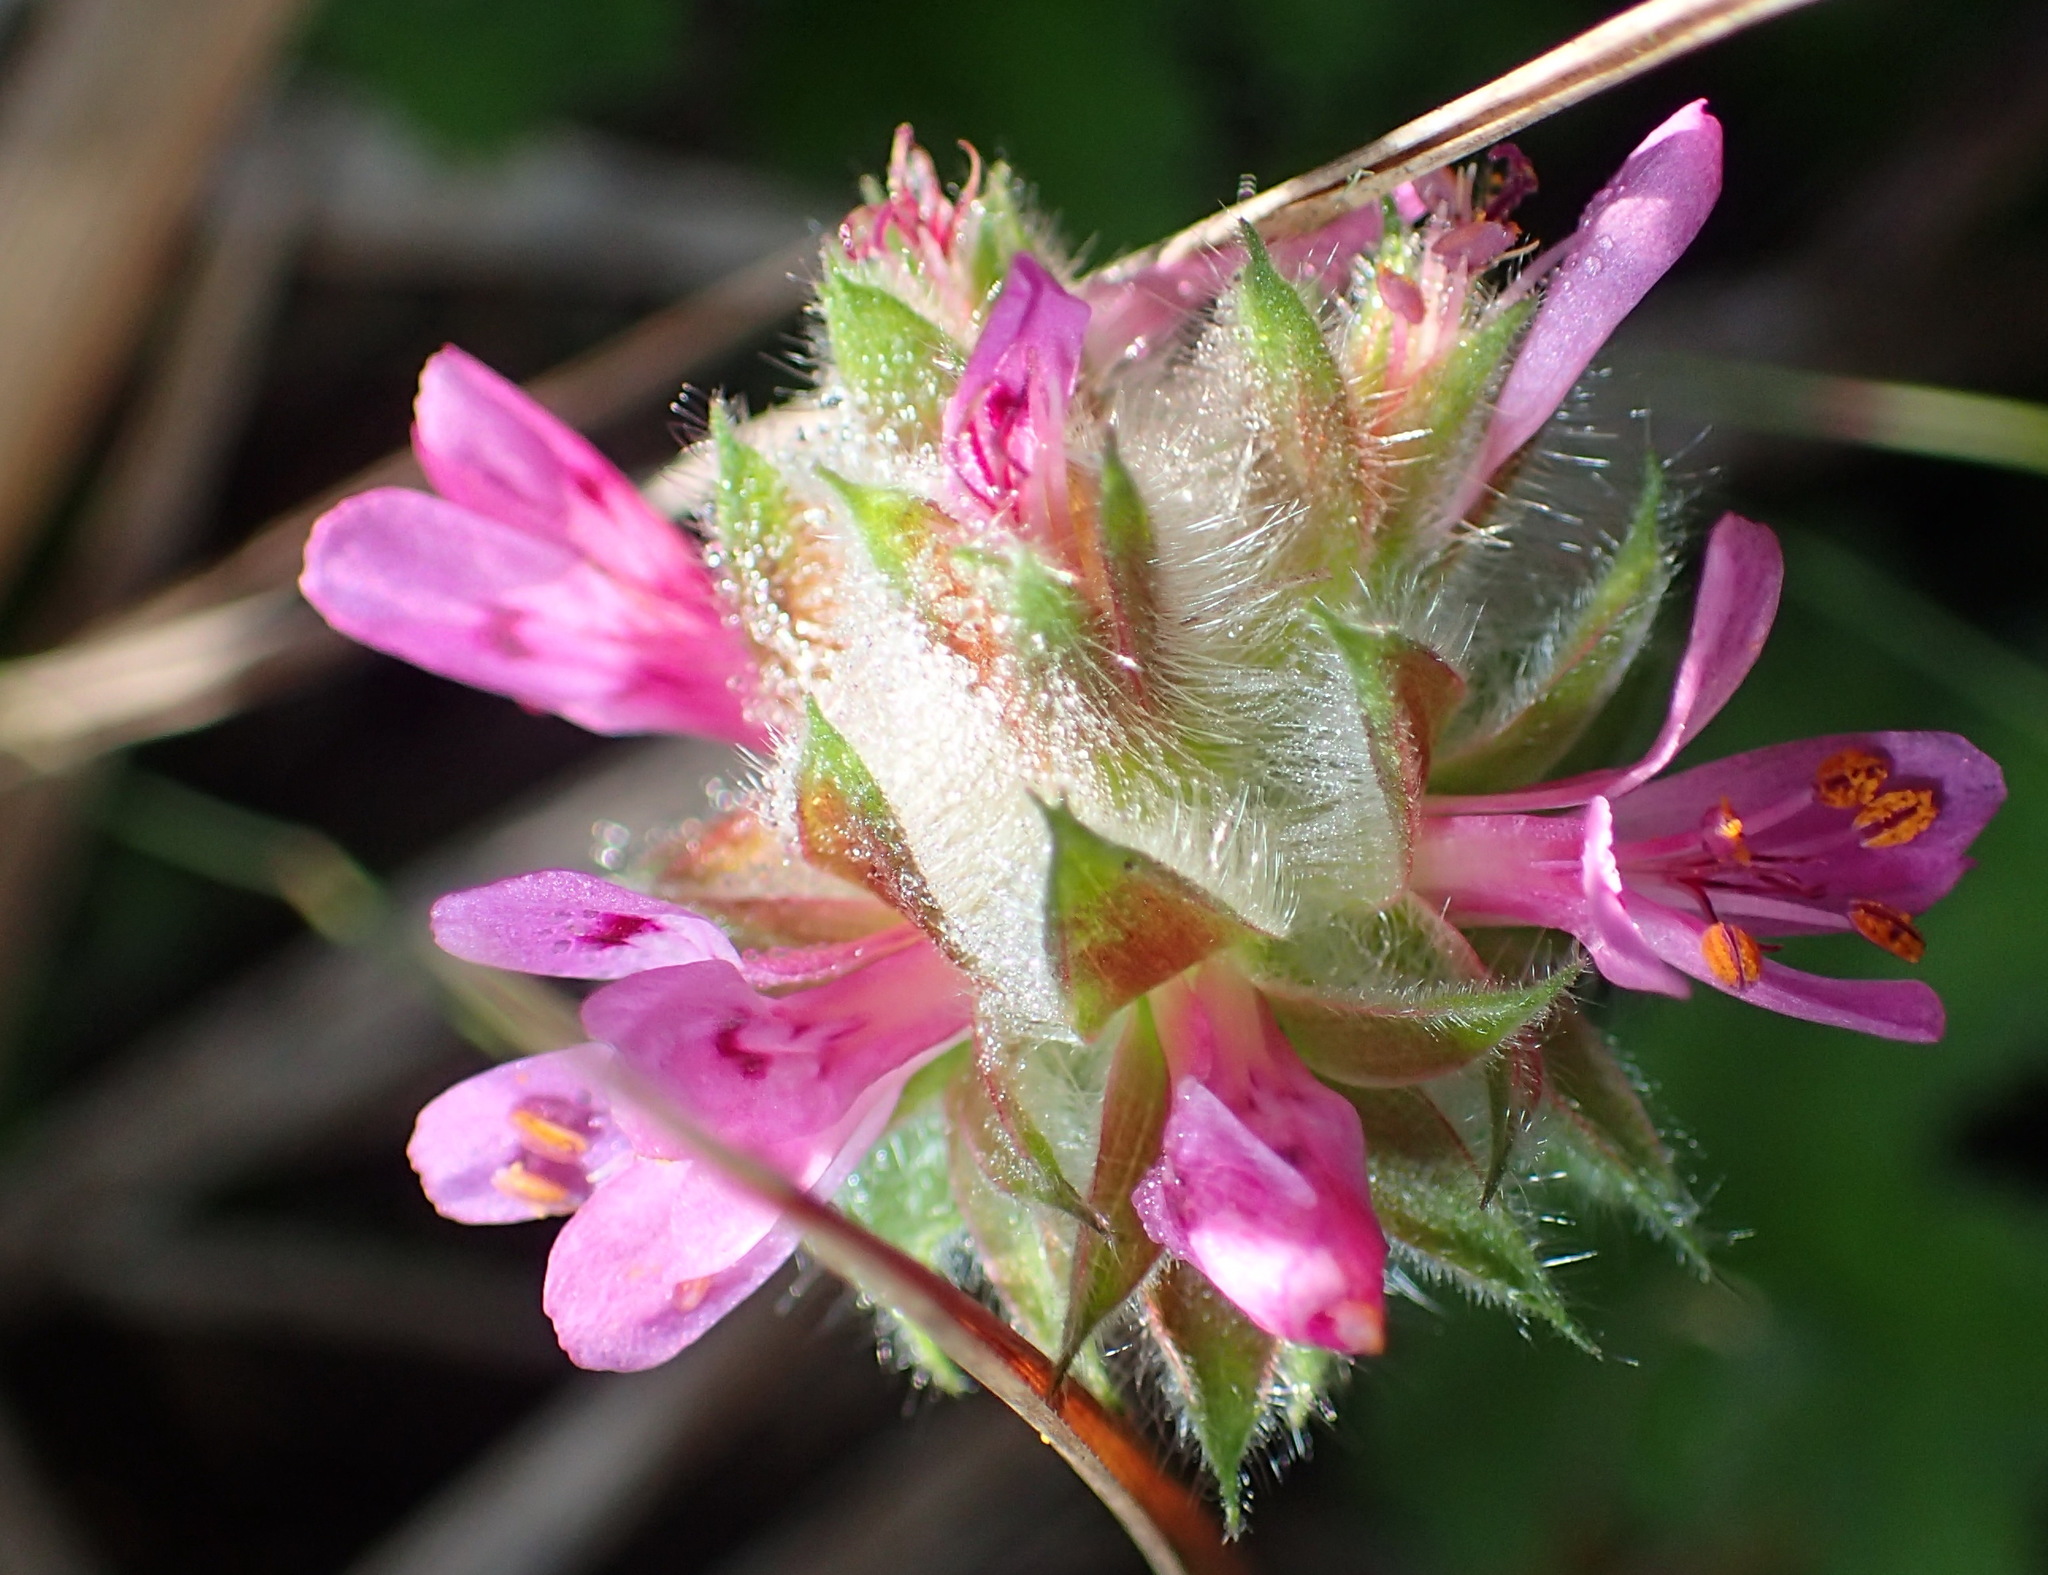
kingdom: Plantae
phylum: Tracheophyta
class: Magnoliopsida
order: Geraniales
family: Geraniaceae
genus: Pelargonium
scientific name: Pelargonium capitatum
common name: Rose scented geranium
